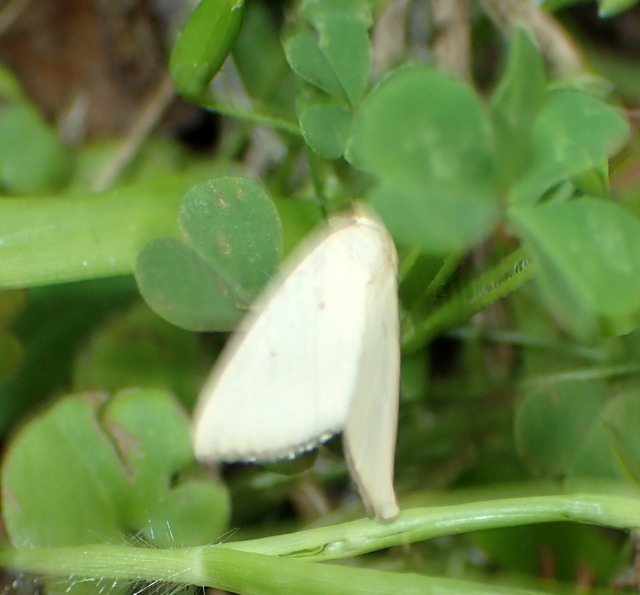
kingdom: Animalia
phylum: Arthropoda
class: Insecta
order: Lepidoptera
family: Noctuidae
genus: Marimatha
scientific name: Marimatha nigrofimbria
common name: Black-bordered lemon moth
